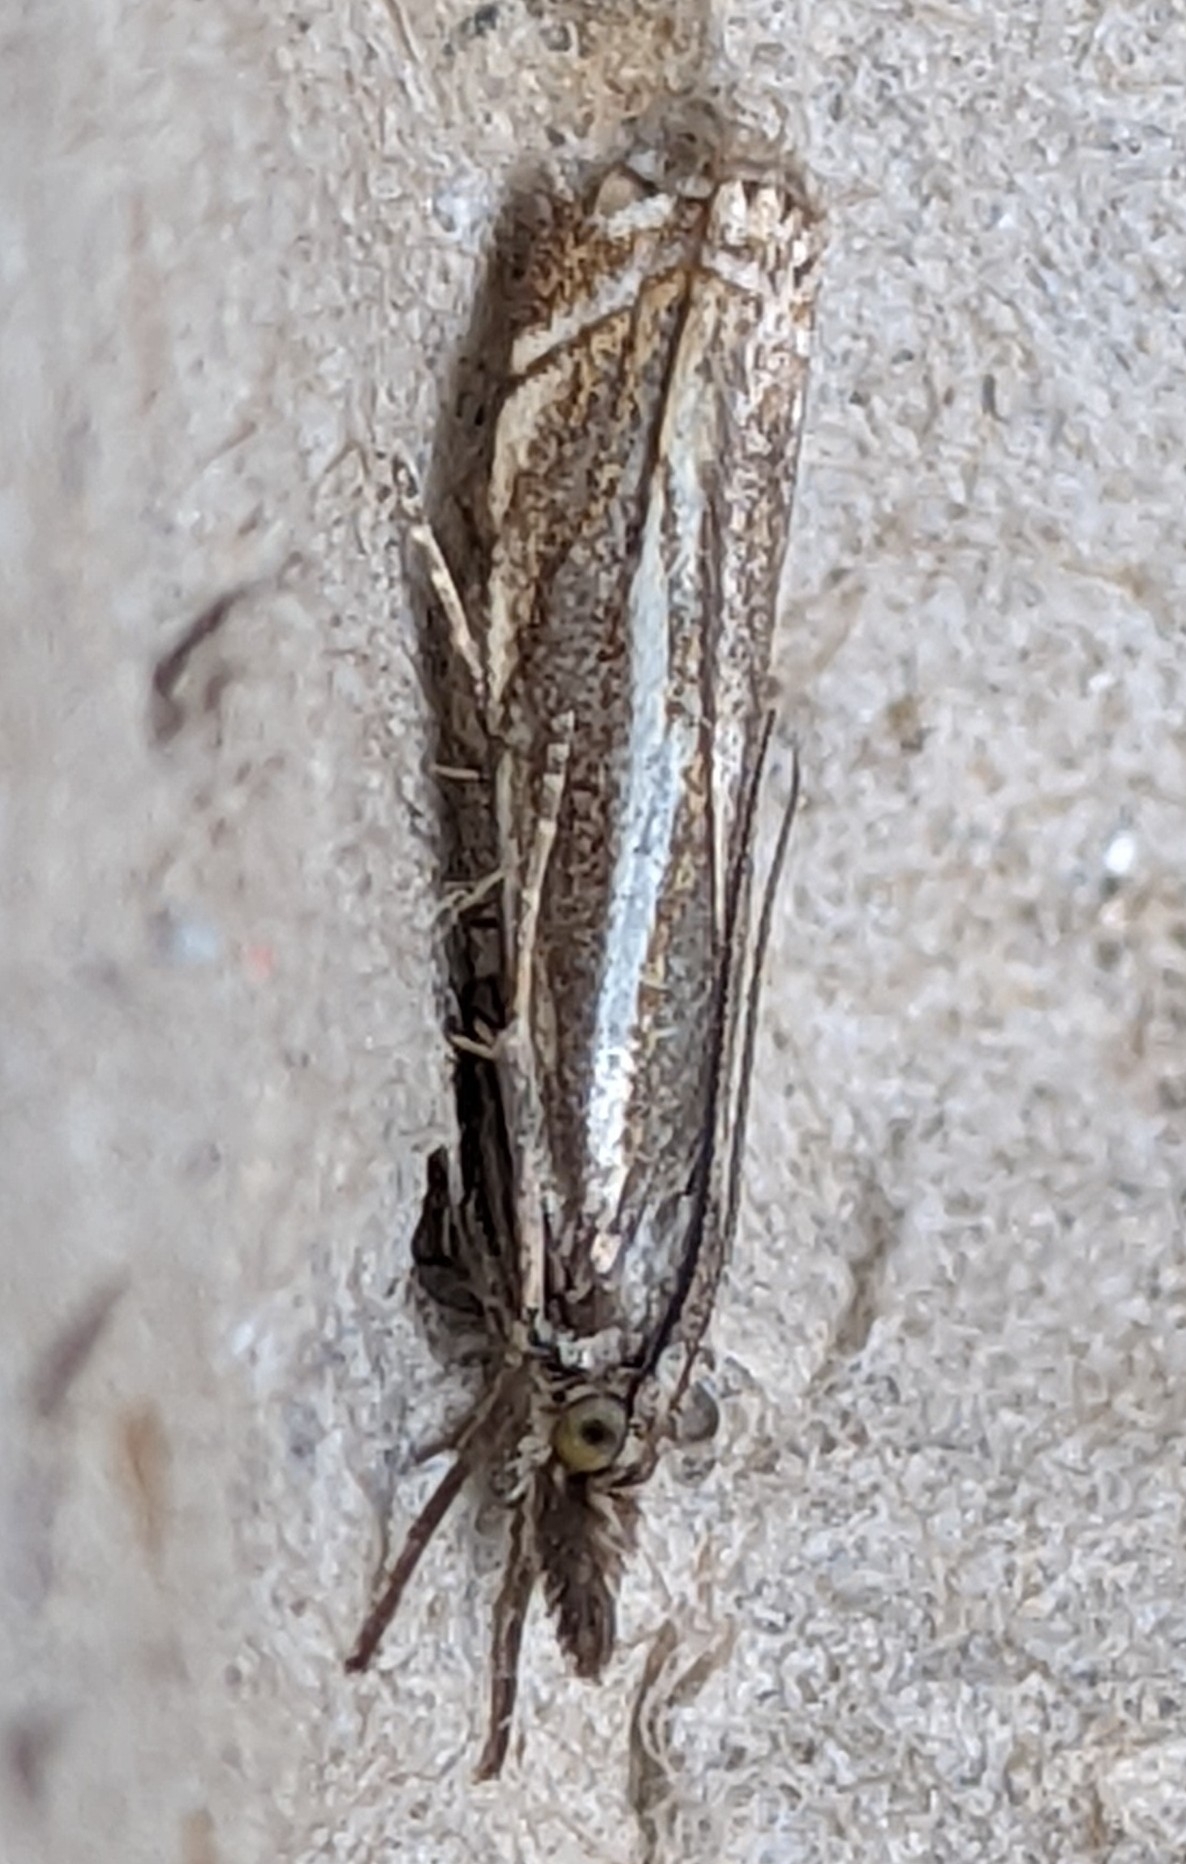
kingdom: Animalia
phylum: Arthropoda
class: Insecta
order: Lepidoptera
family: Crambidae
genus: Crambus
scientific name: Crambus nemorella
